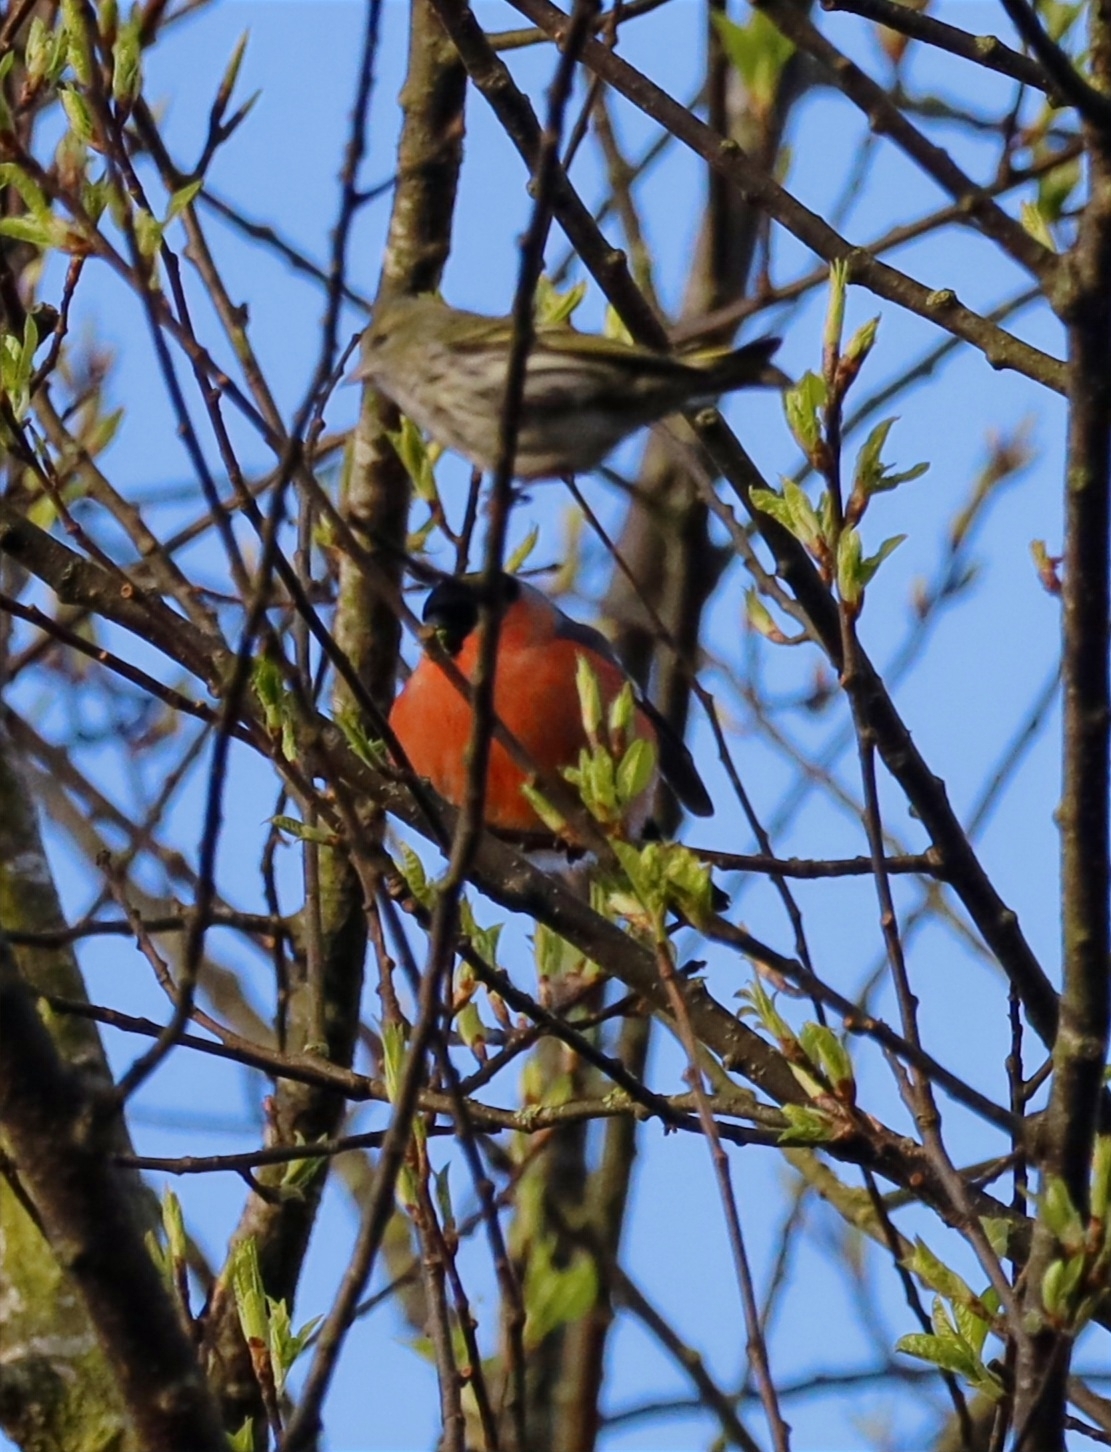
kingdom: Animalia
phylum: Chordata
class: Aves
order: Passeriformes
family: Fringillidae
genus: Spinus
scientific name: Spinus spinus
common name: Eurasian siskin
